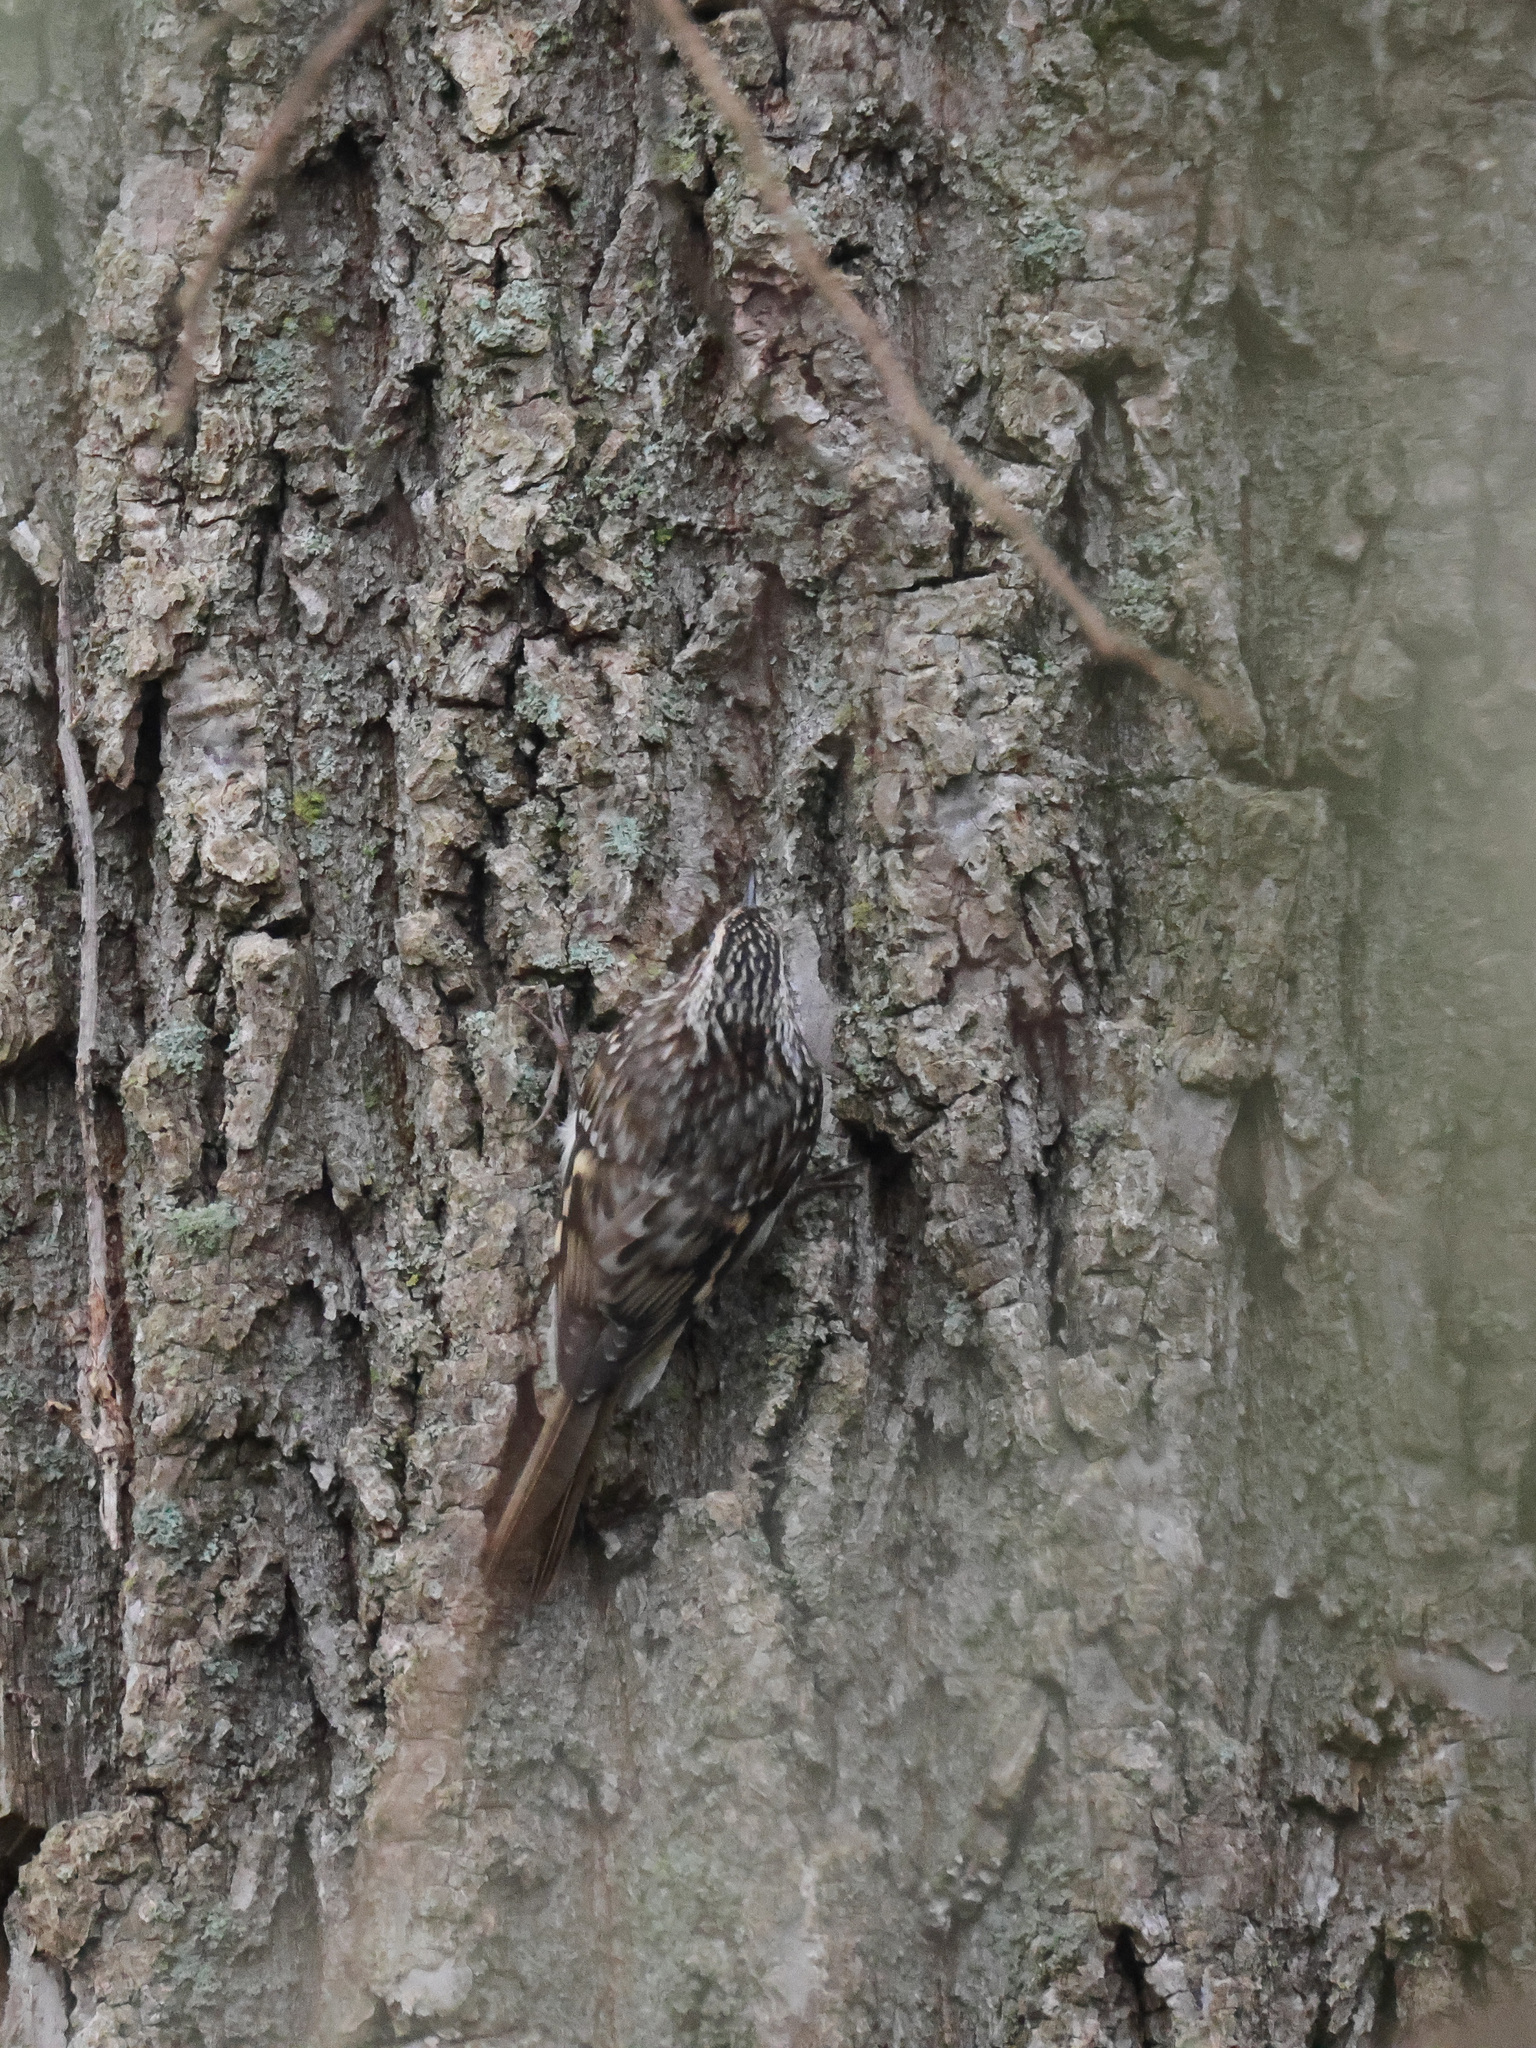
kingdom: Animalia
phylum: Chordata
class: Aves
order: Passeriformes
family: Certhiidae
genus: Certhia
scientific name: Certhia americana
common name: Brown creeper
